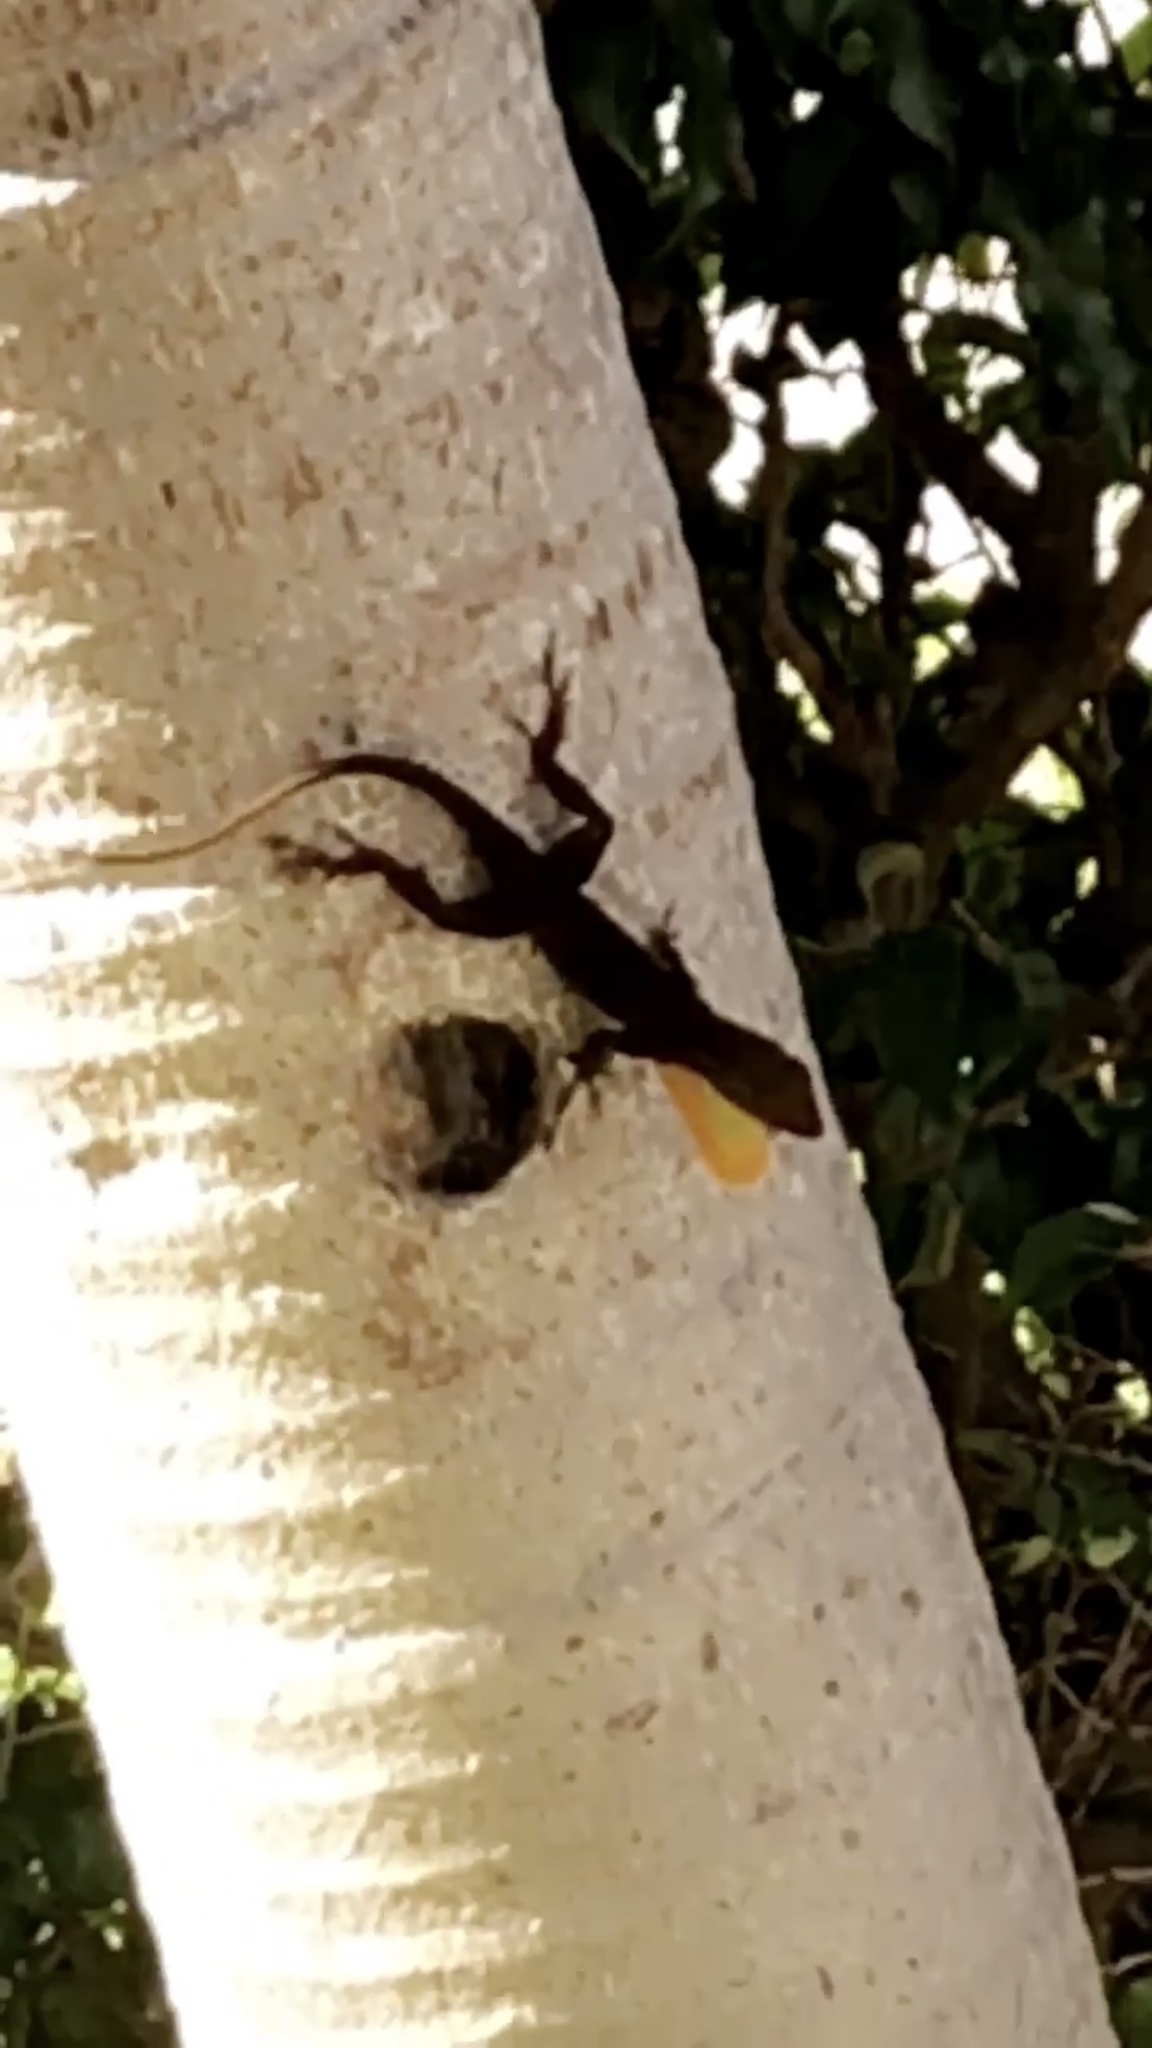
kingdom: Animalia
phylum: Chordata
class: Squamata
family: Dactyloidae
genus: Anolis
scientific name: Anolis cristatellus
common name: Crested anole
